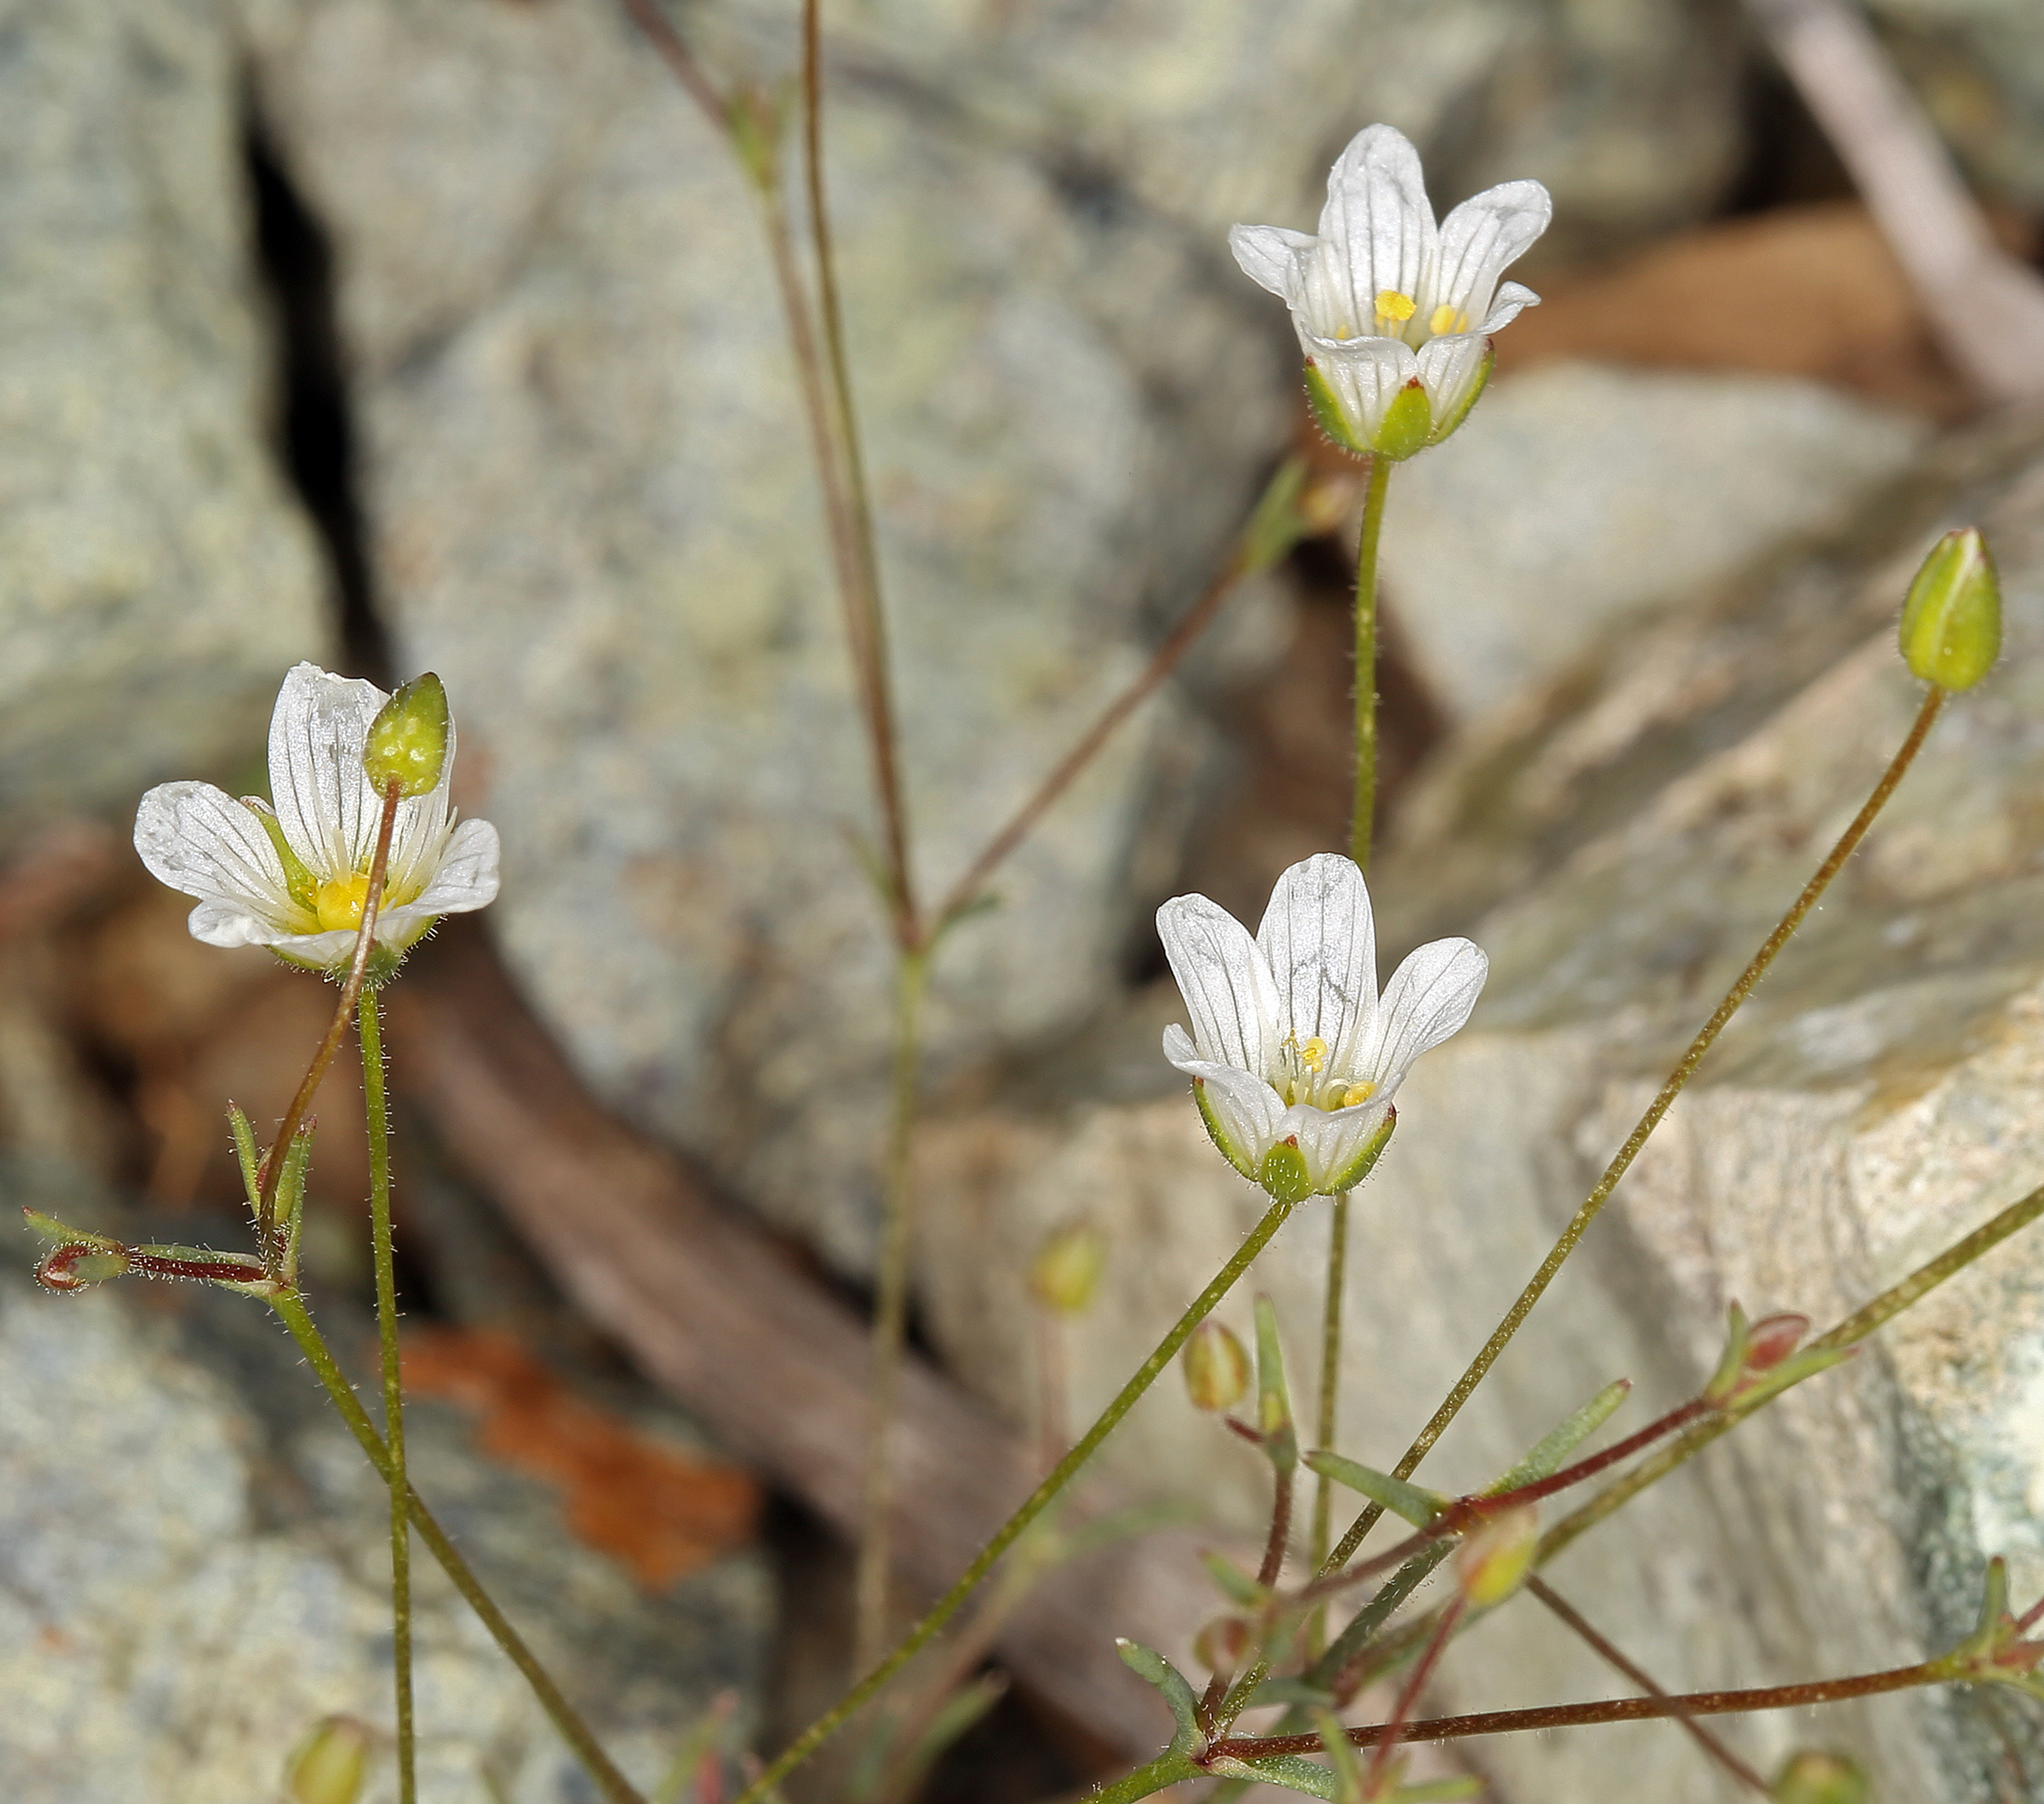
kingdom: Plantae
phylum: Tracheophyta
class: Magnoliopsida
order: Caryophyllales
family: Caryophyllaceae
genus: Sabulina
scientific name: Sabulina douglasii
